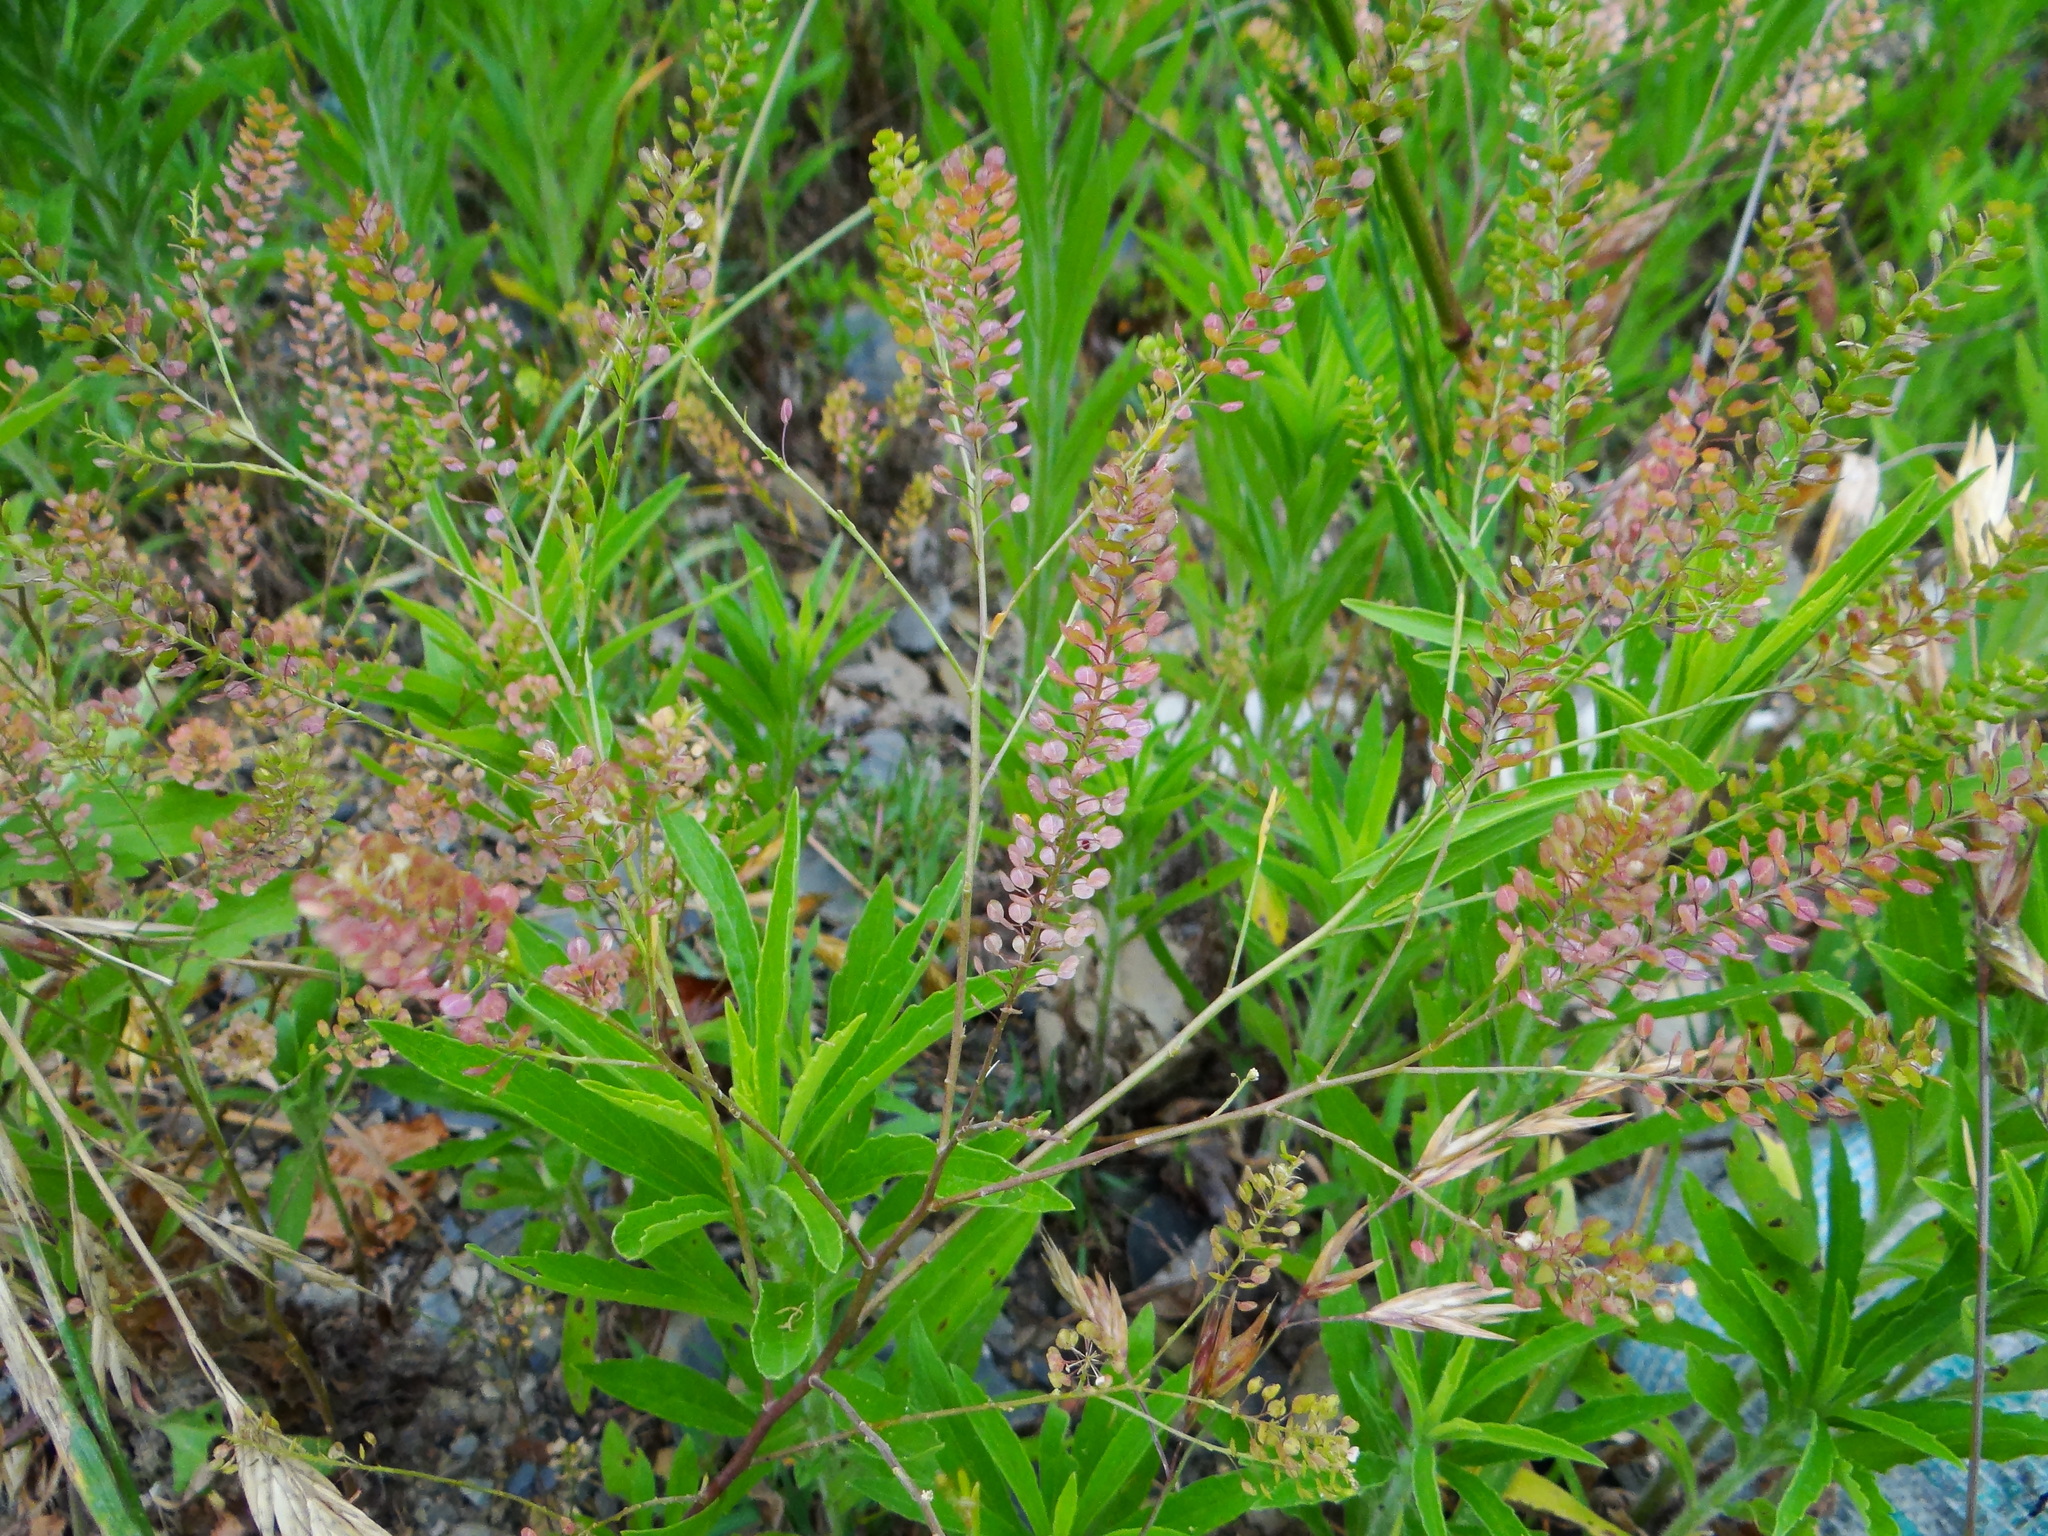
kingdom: Plantae
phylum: Tracheophyta
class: Magnoliopsida
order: Brassicales
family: Brassicaceae
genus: Lepidium
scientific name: Lepidium virginicum
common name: Least pepperwort
